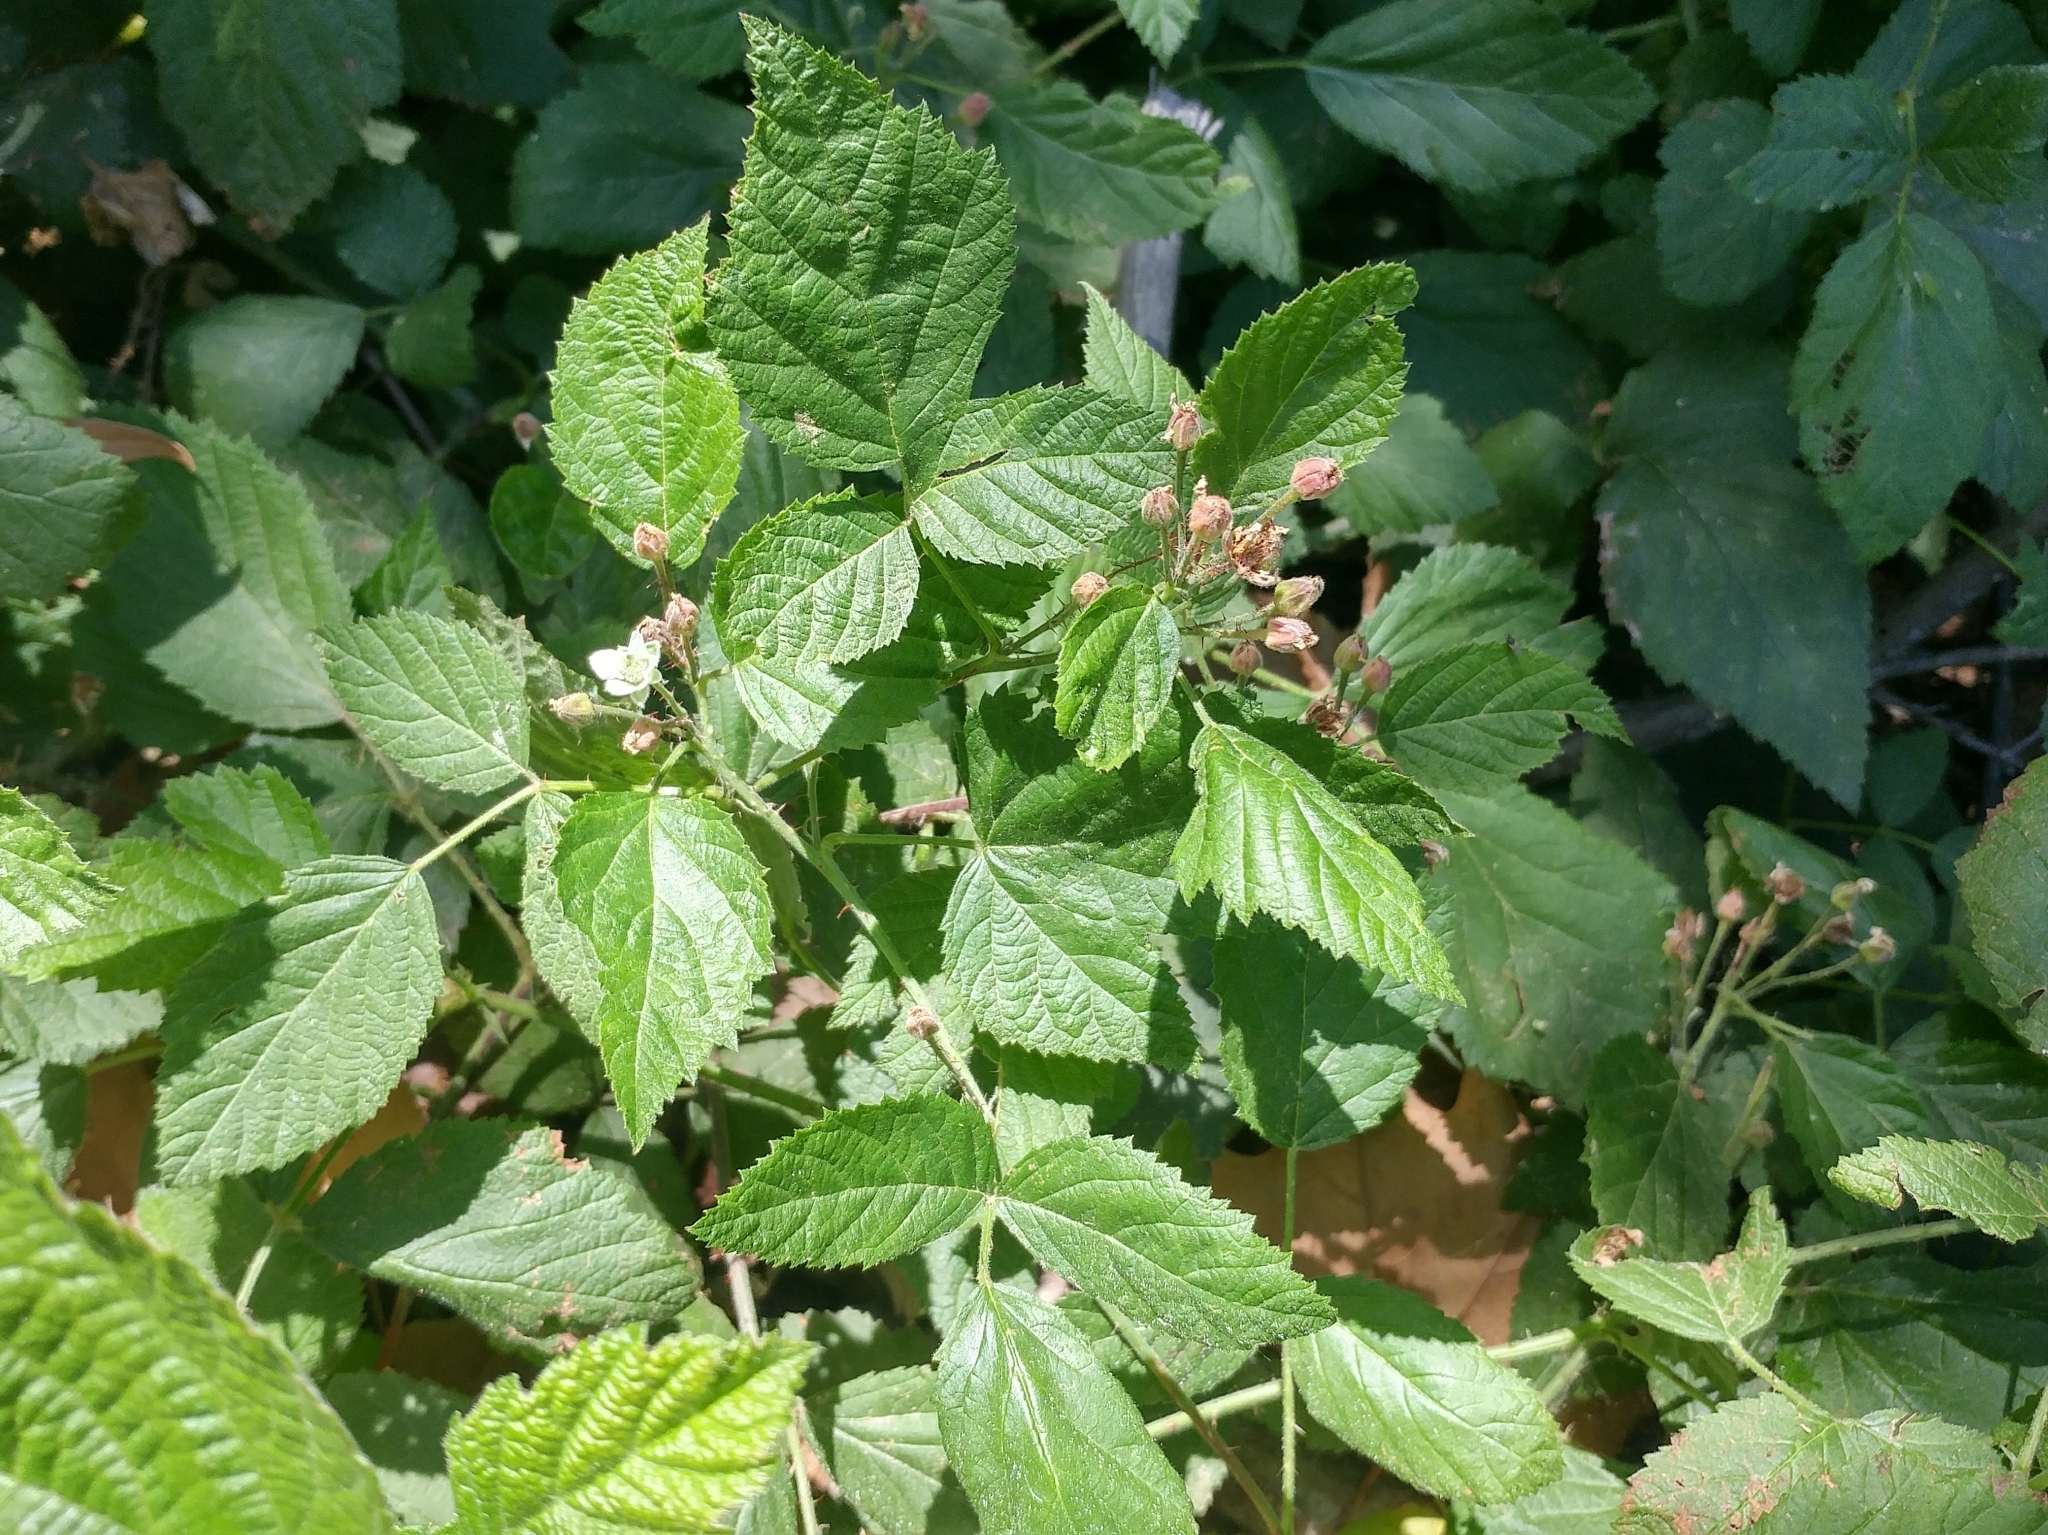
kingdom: Plantae
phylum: Tracheophyta
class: Magnoliopsida
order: Rosales
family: Rosaceae
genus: Rubus
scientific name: Rubus ursinus
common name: Pacific blackberry
